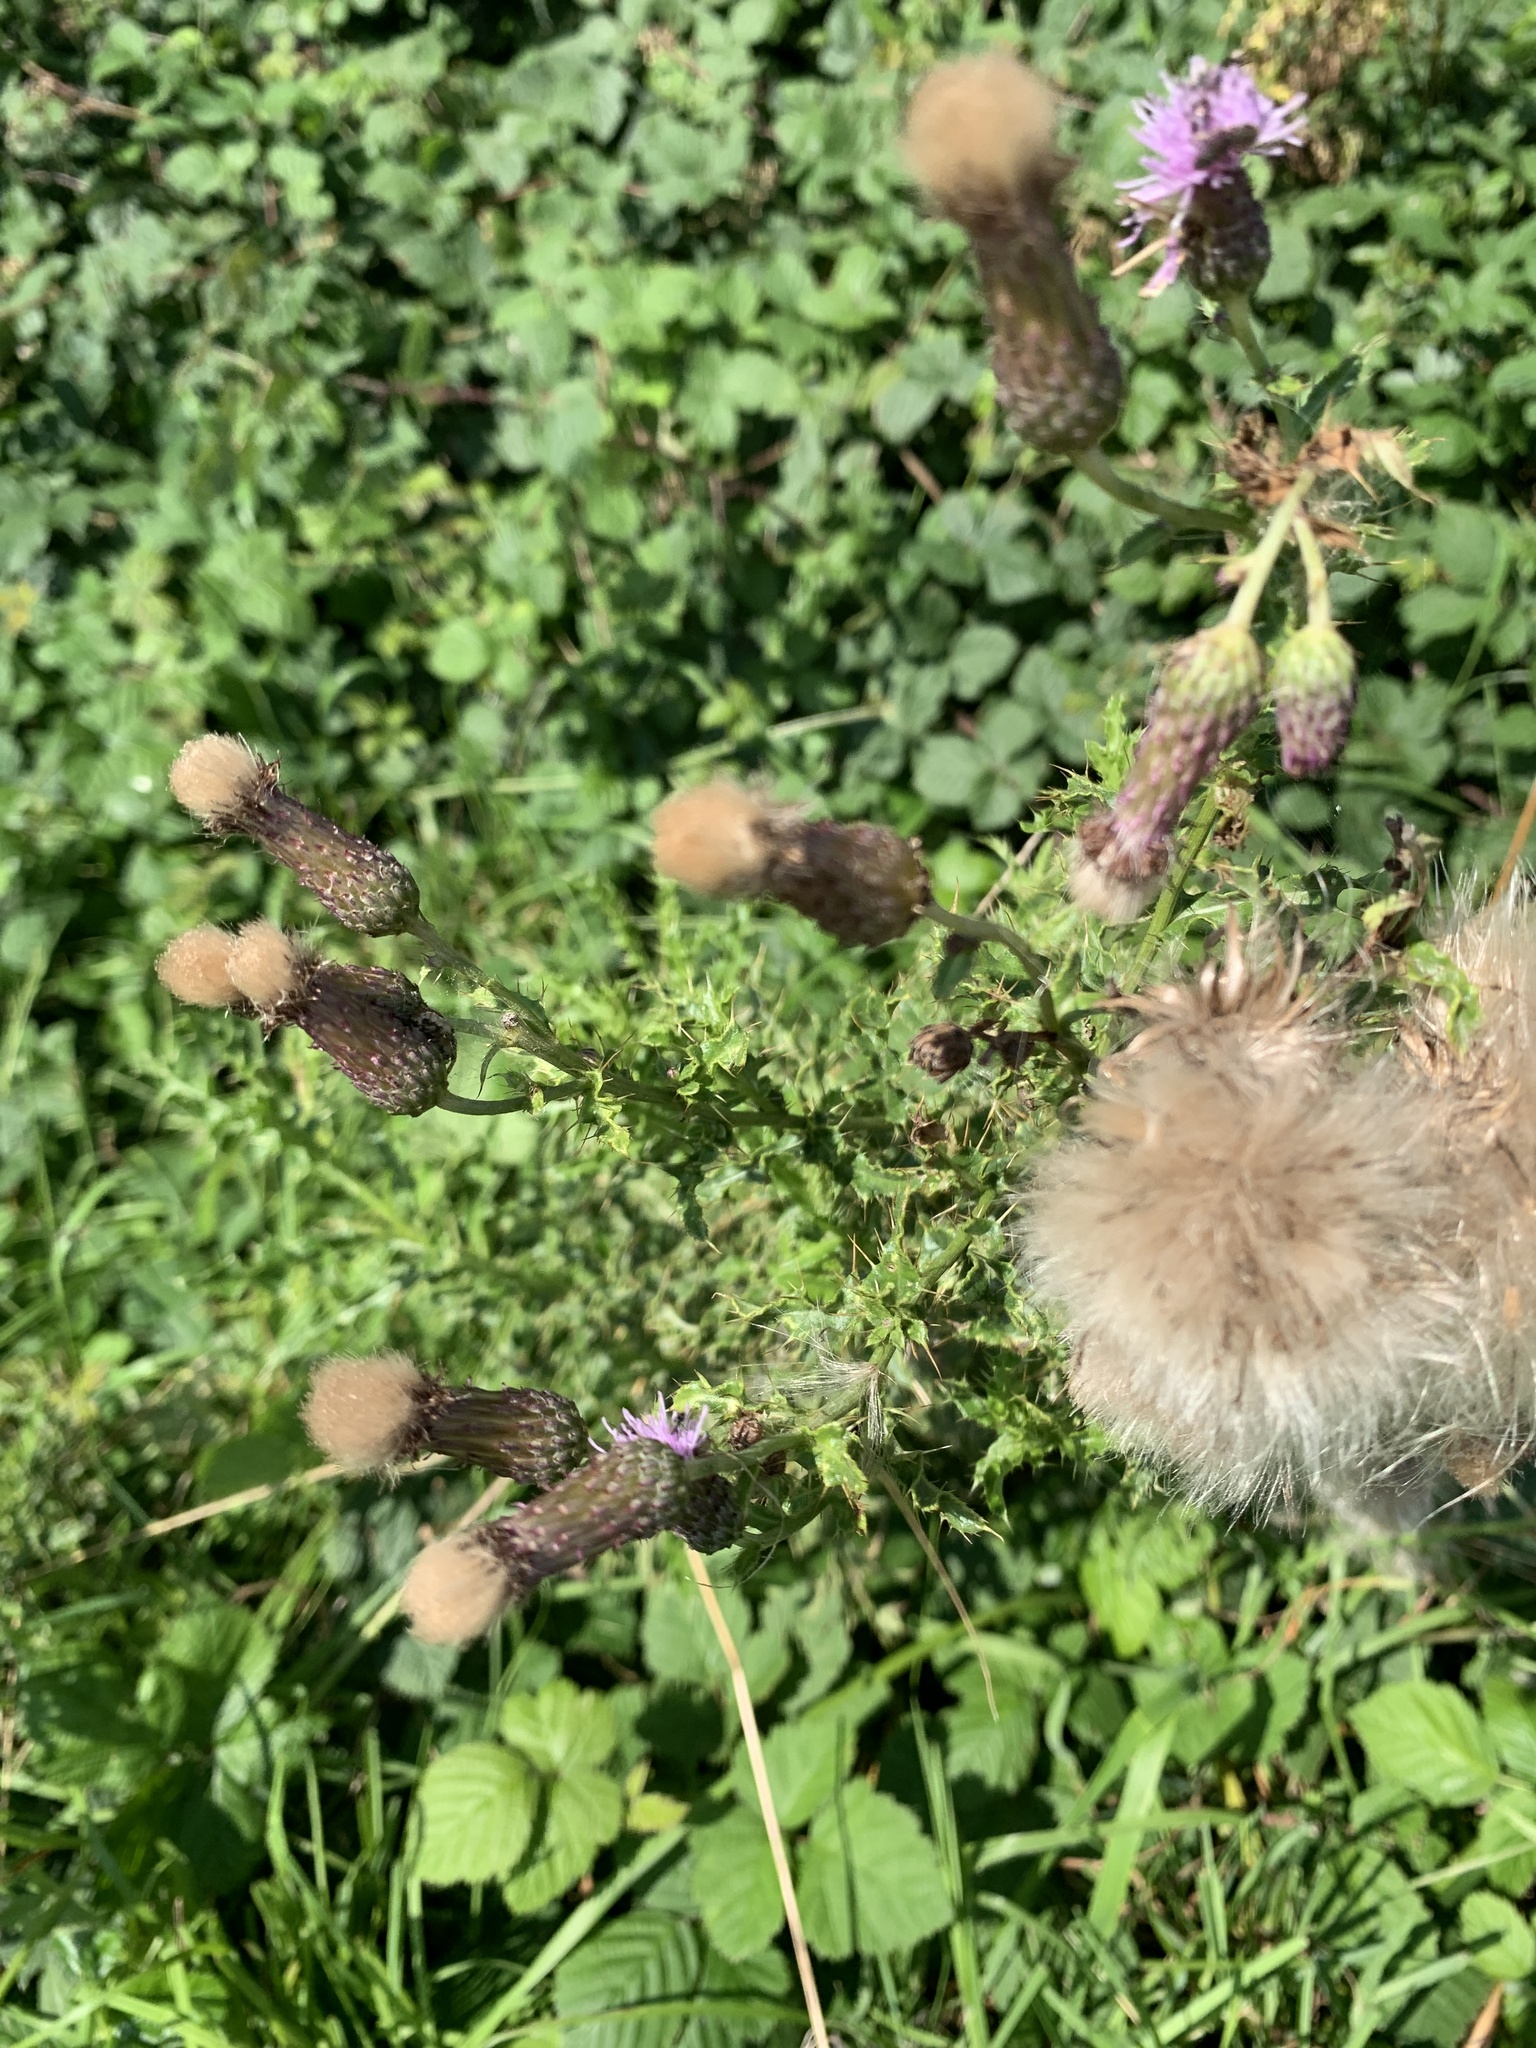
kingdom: Plantae
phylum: Tracheophyta
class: Magnoliopsida
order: Asterales
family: Asteraceae
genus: Cirsium
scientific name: Cirsium arvense
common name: Creeping thistle
